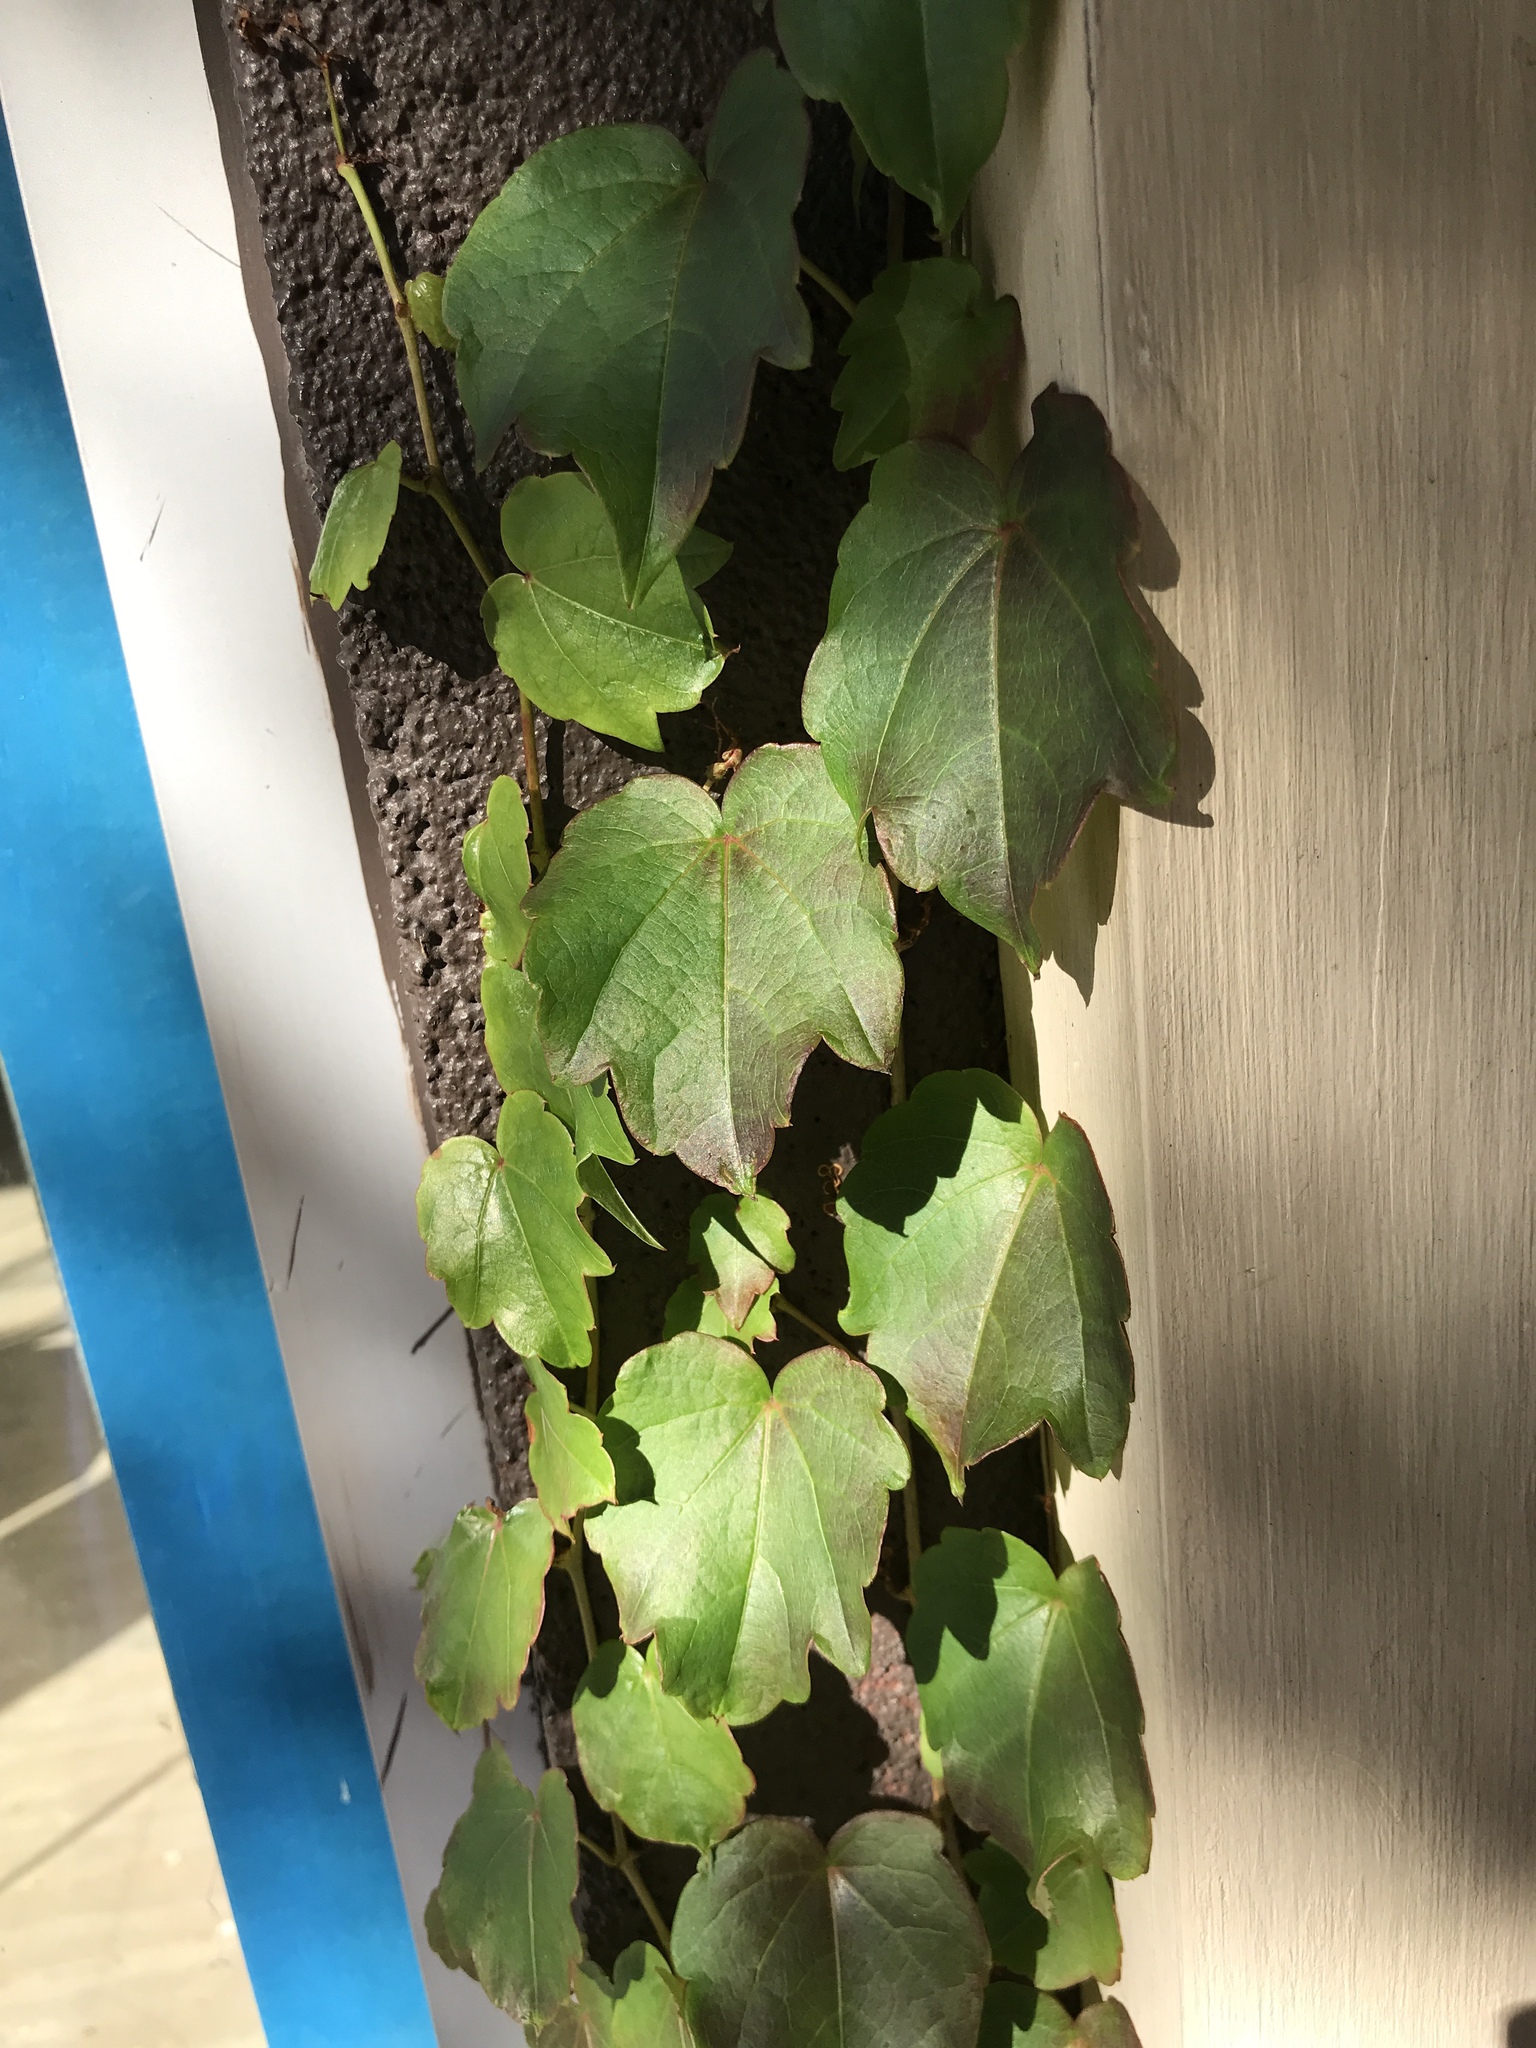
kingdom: Plantae
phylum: Tracheophyta
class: Magnoliopsida
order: Vitales
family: Vitaceae
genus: Parthenocissus
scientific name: Parthenocissus tricuspidata
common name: Boston ivy
